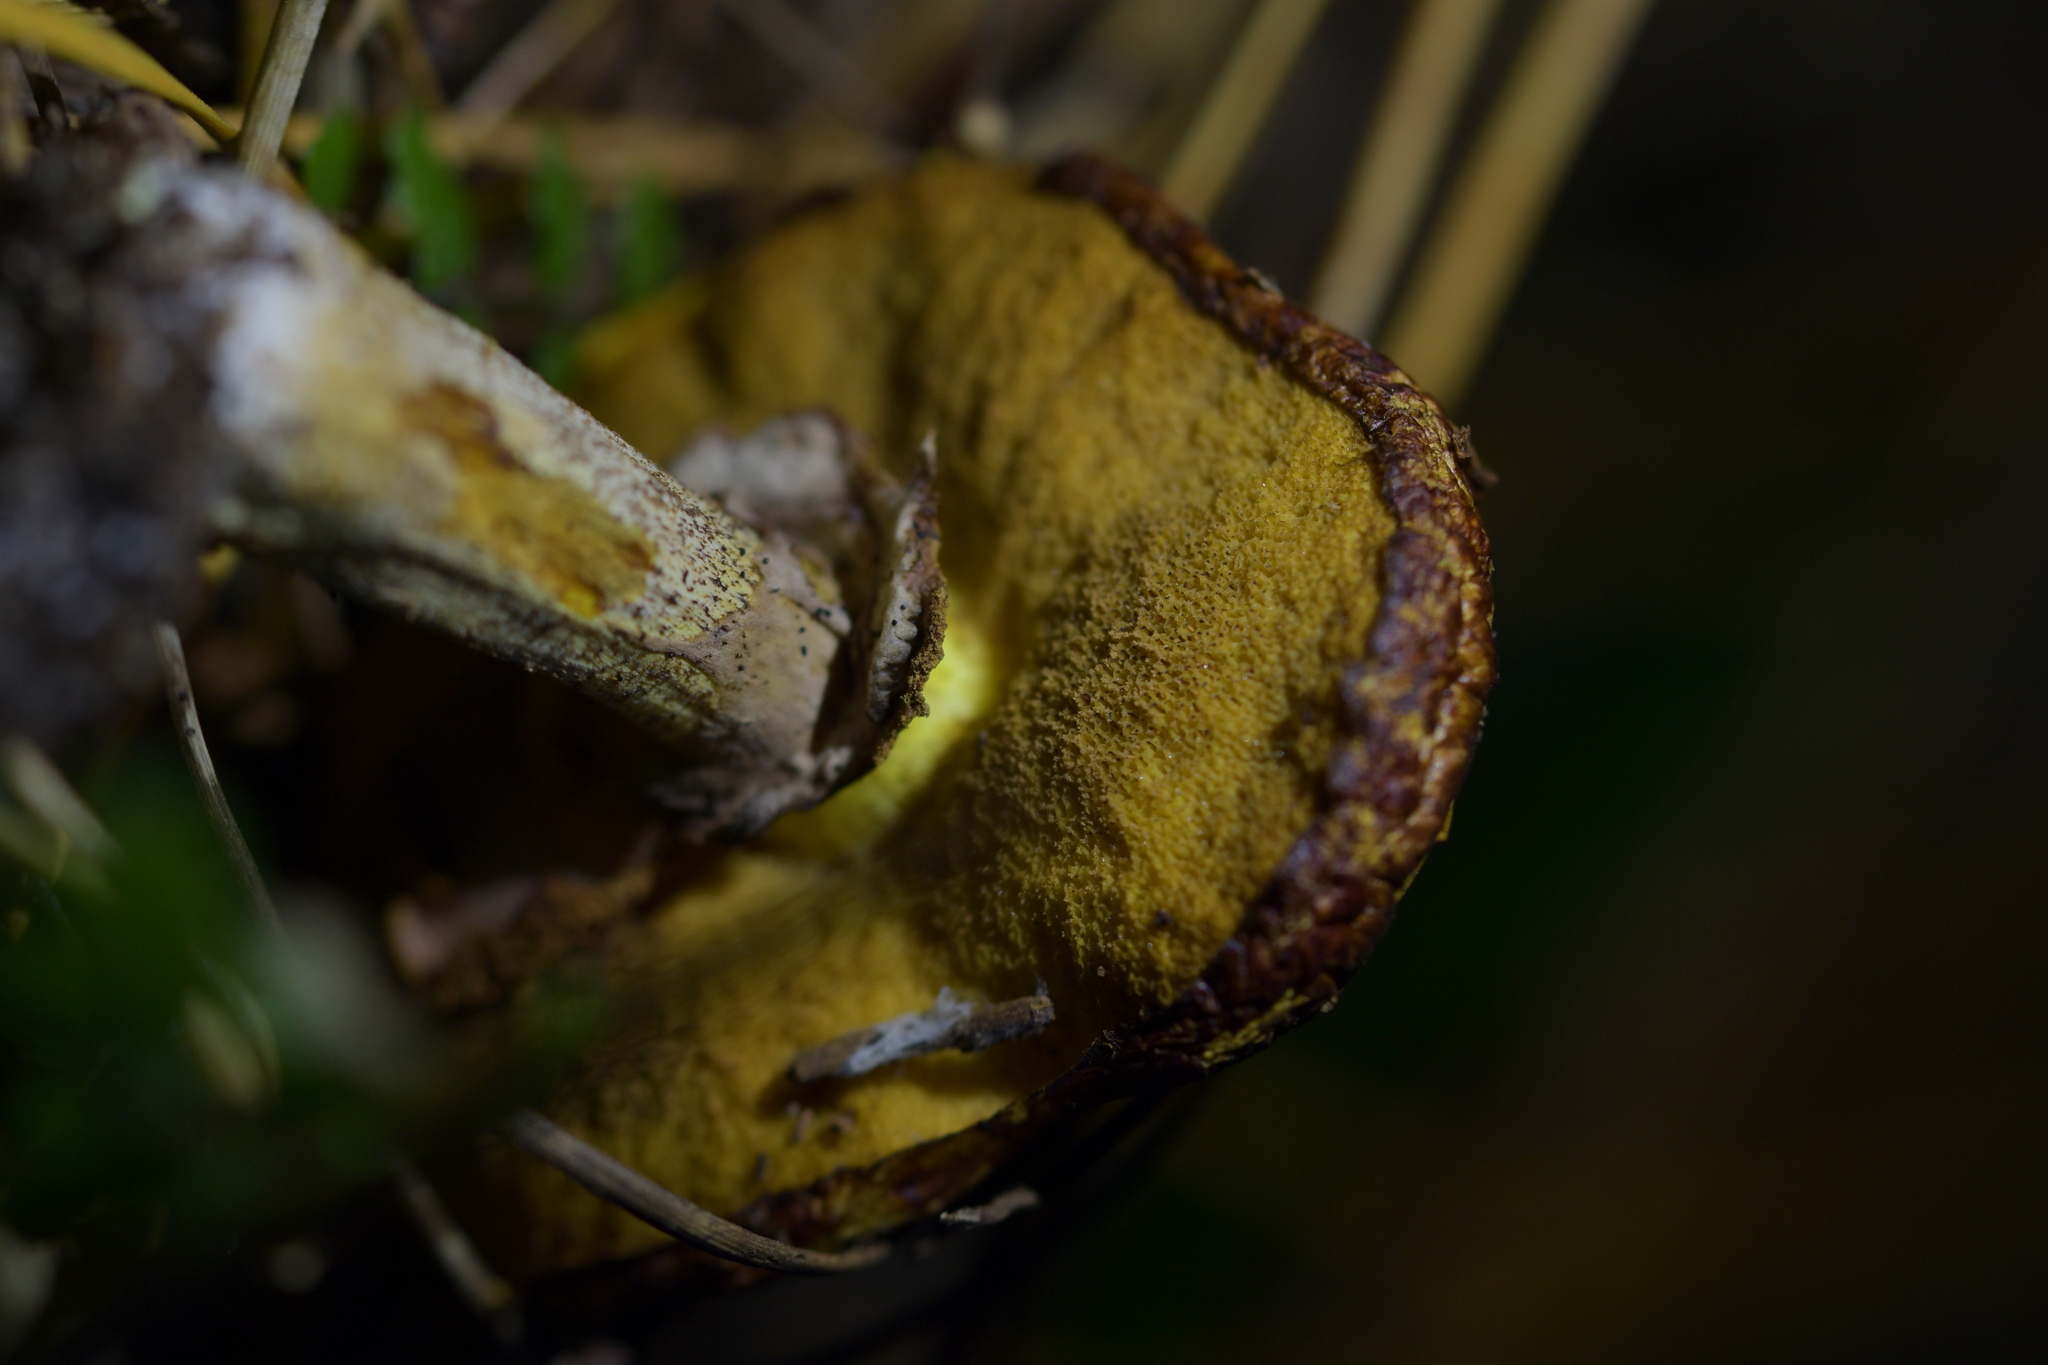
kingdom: Fungi
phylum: Basidiomycota
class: Agaricomycetes
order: Boletales
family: Suillaceae
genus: Suillus
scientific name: Suillus luteus
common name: Slippery jack
